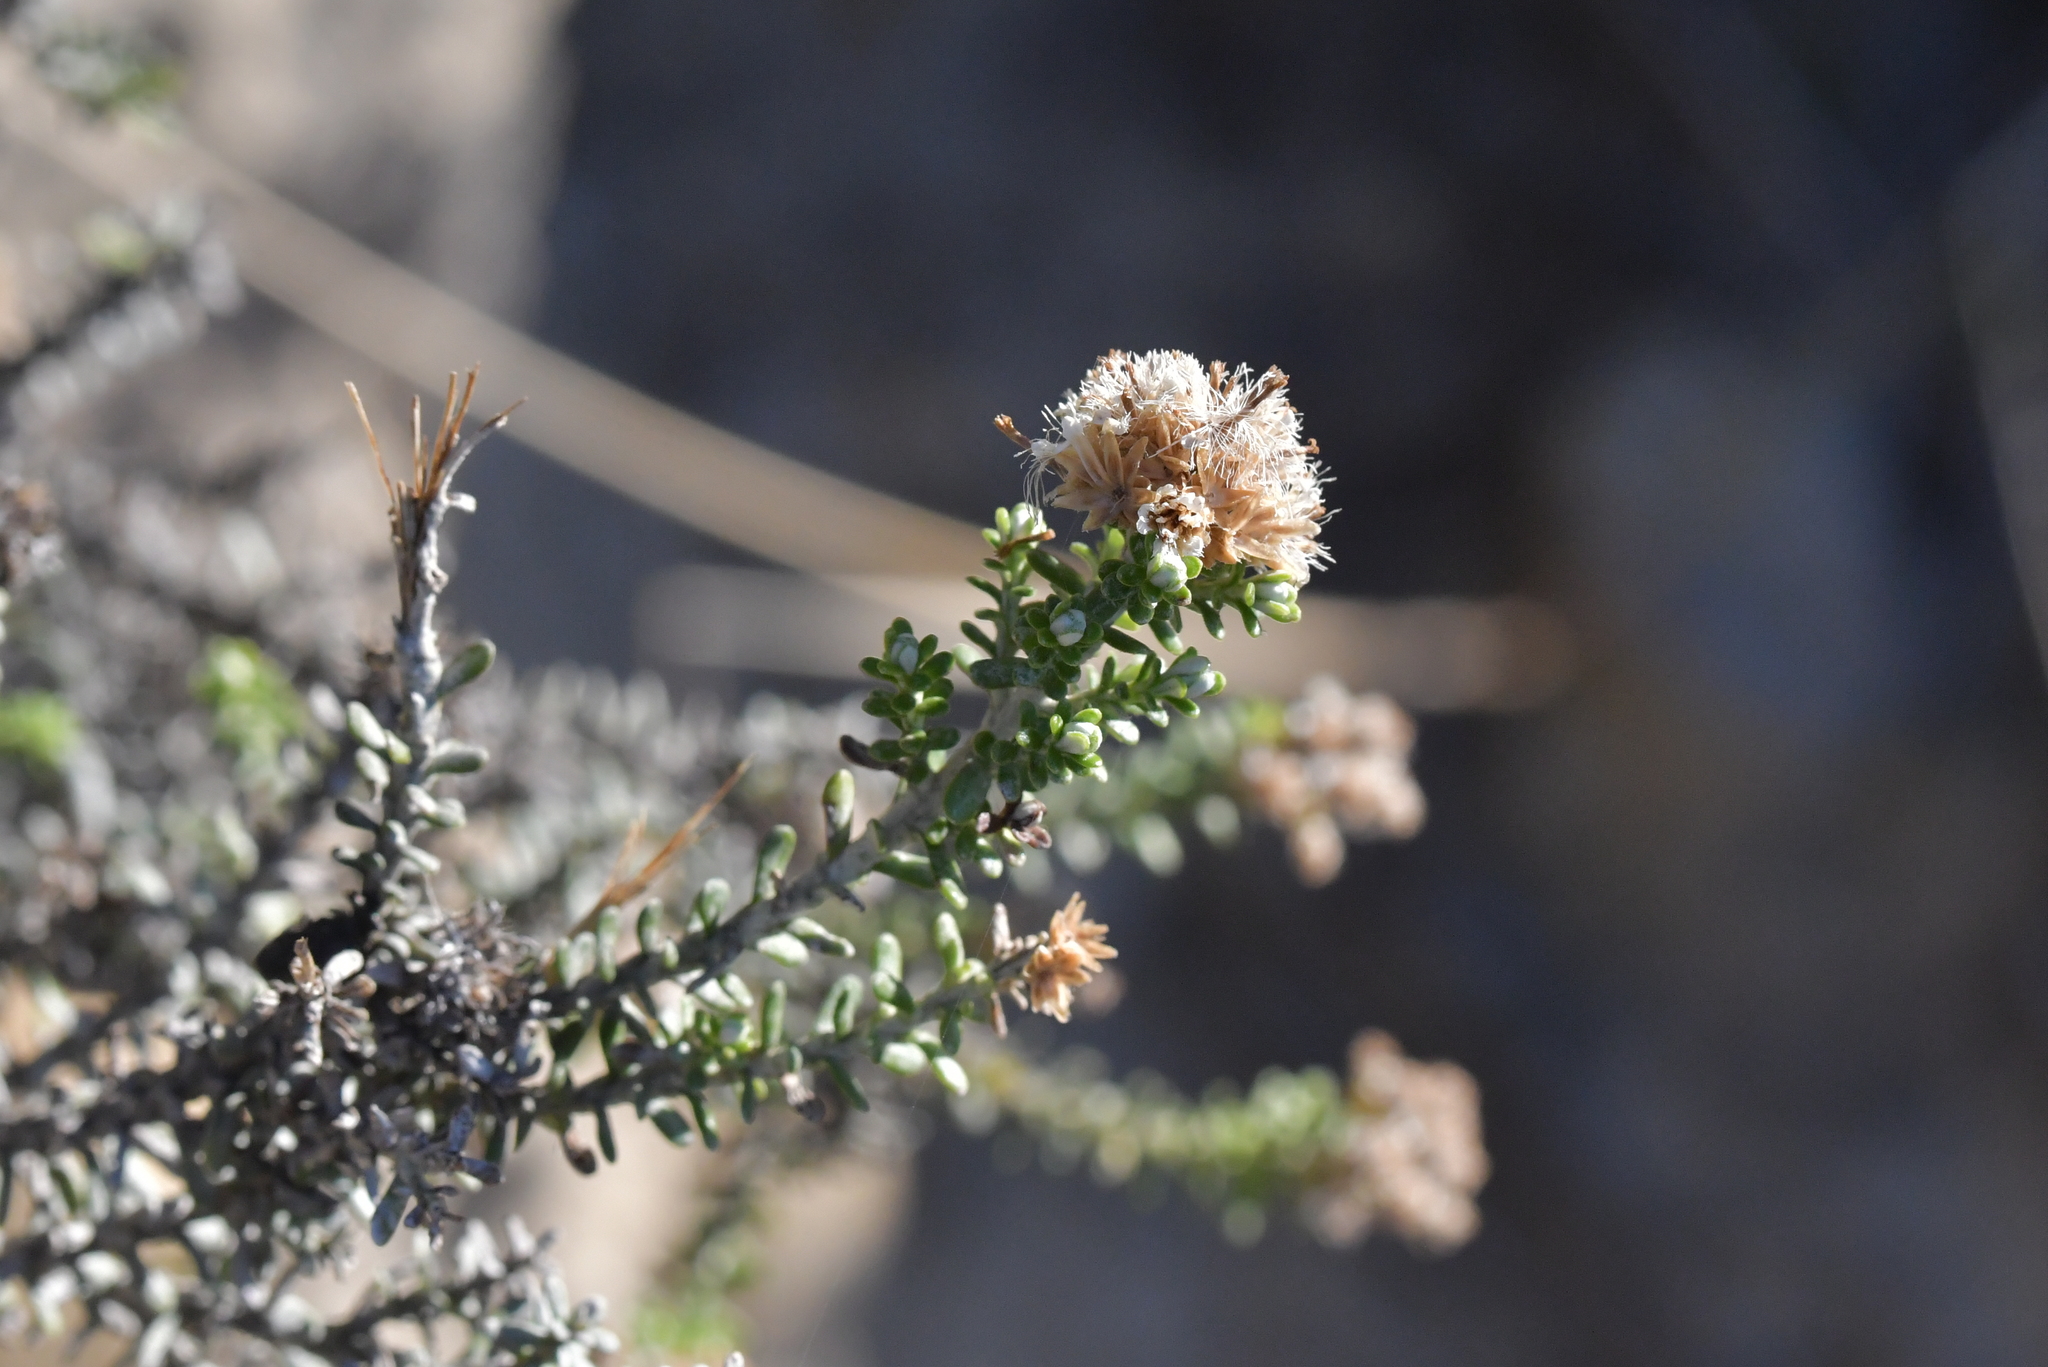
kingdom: Plantae
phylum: Tracheophyta
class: Magnoliopsida
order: Asterales
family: Asteraceae
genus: Ozothamnus
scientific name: Ozothamnus leptophyllus
